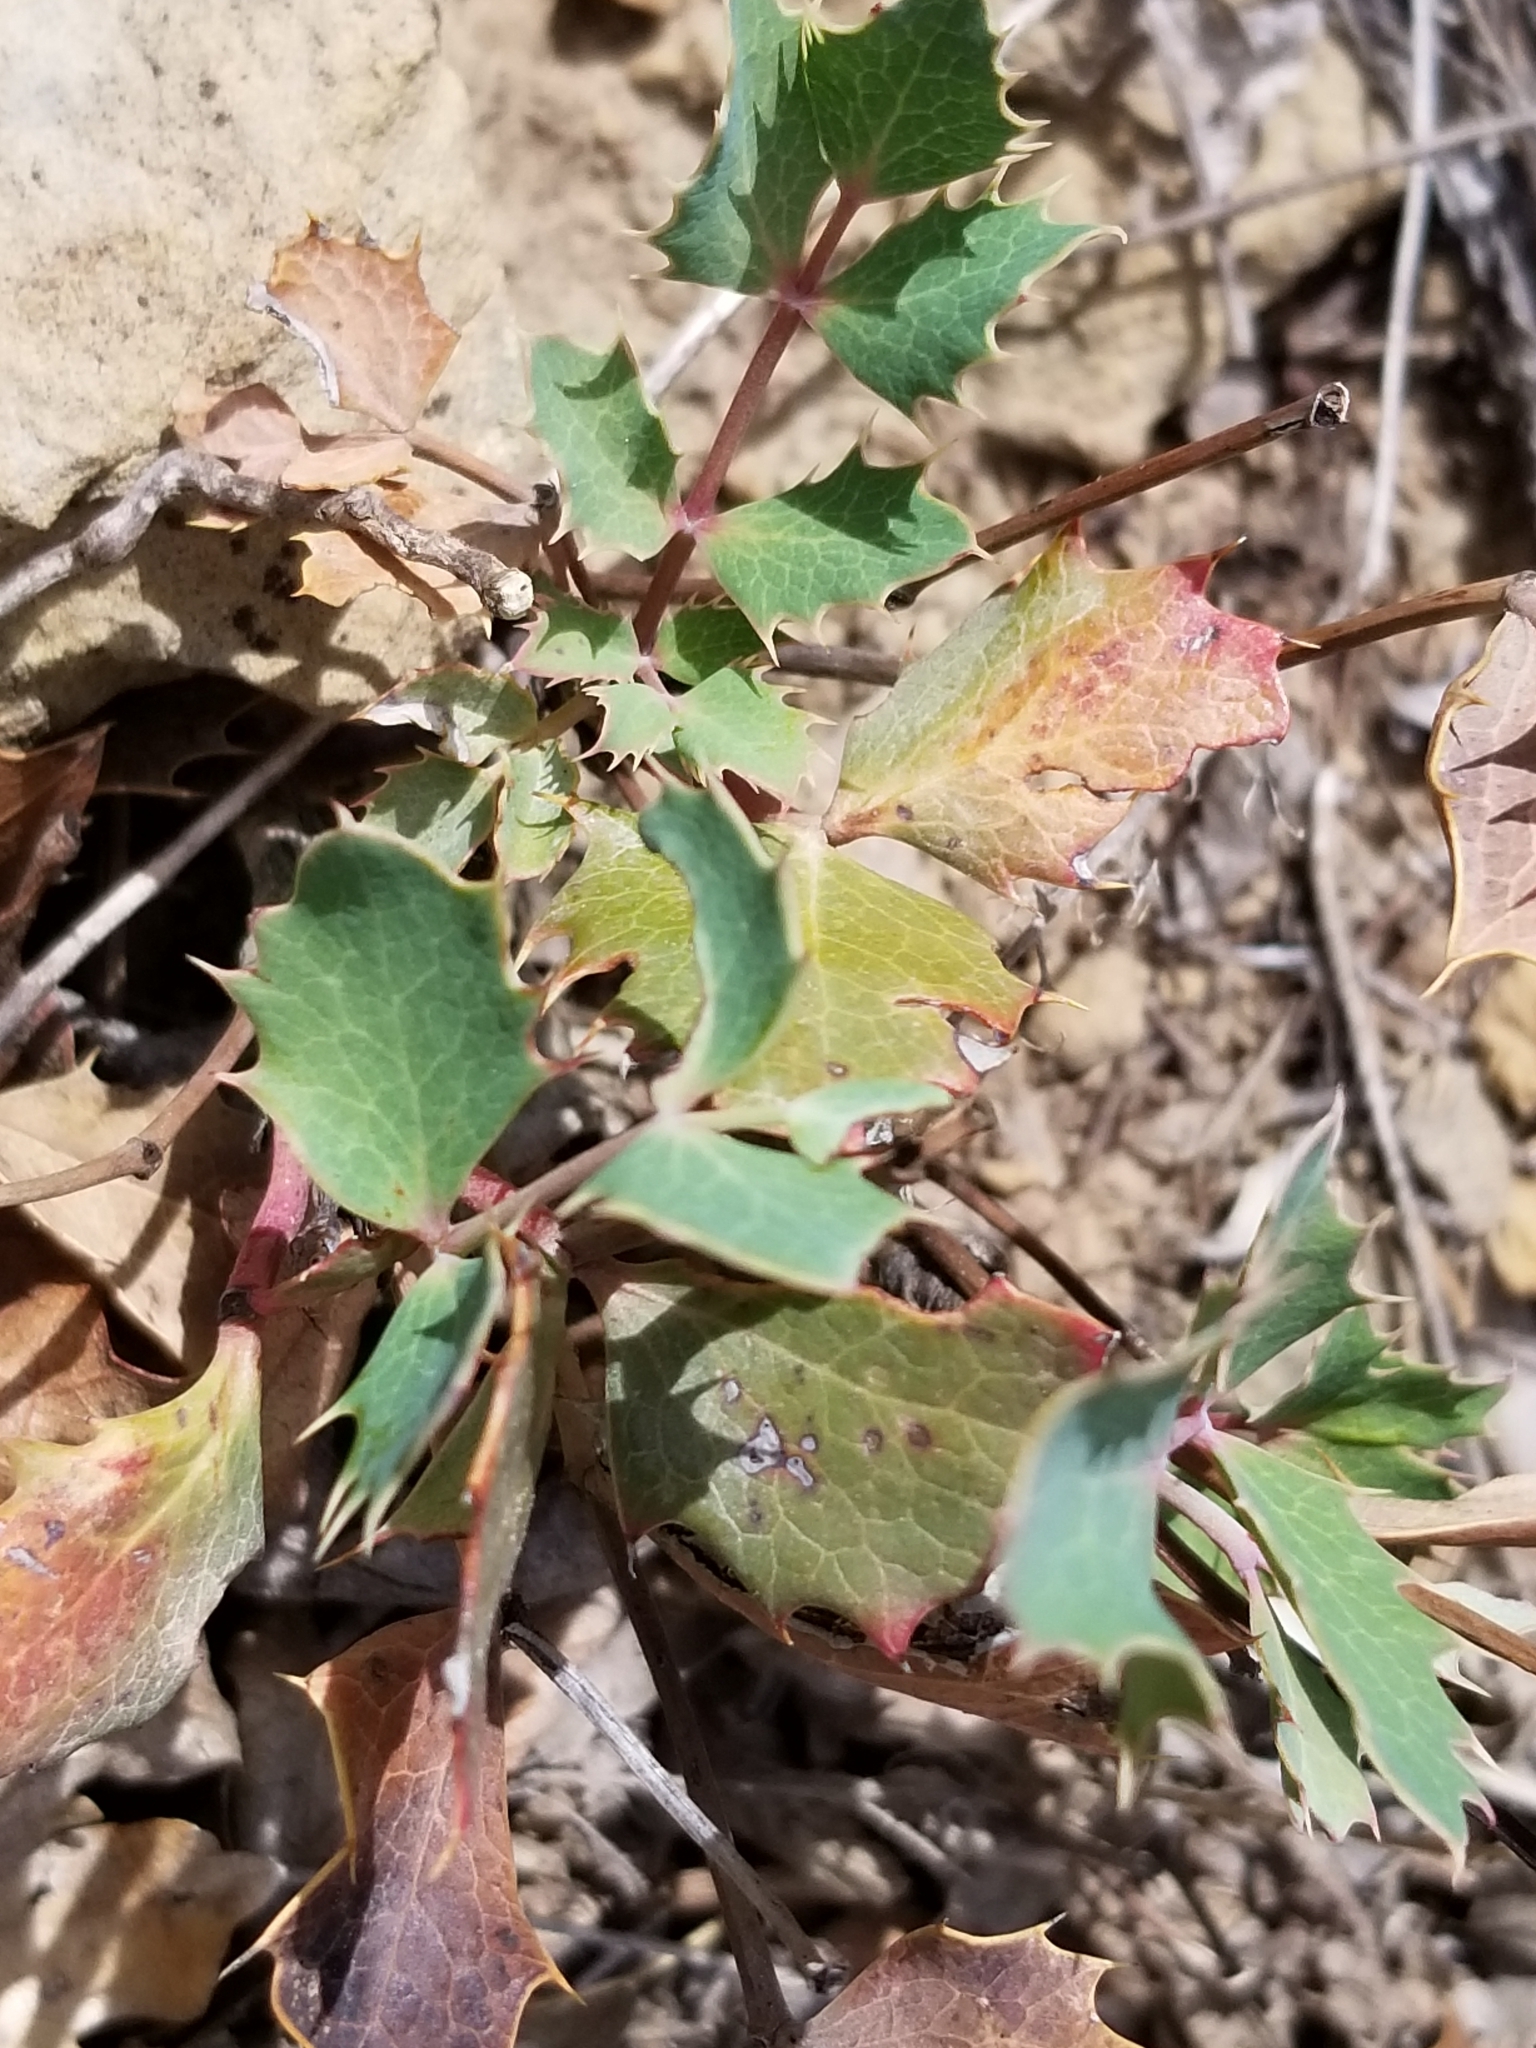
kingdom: Plantae
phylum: Tracheophyta
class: Magnoliopsida
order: Ranunculales
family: Berberidaceae
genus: Mahonia
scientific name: Mahonia repens
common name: Creeping oregon-grape
